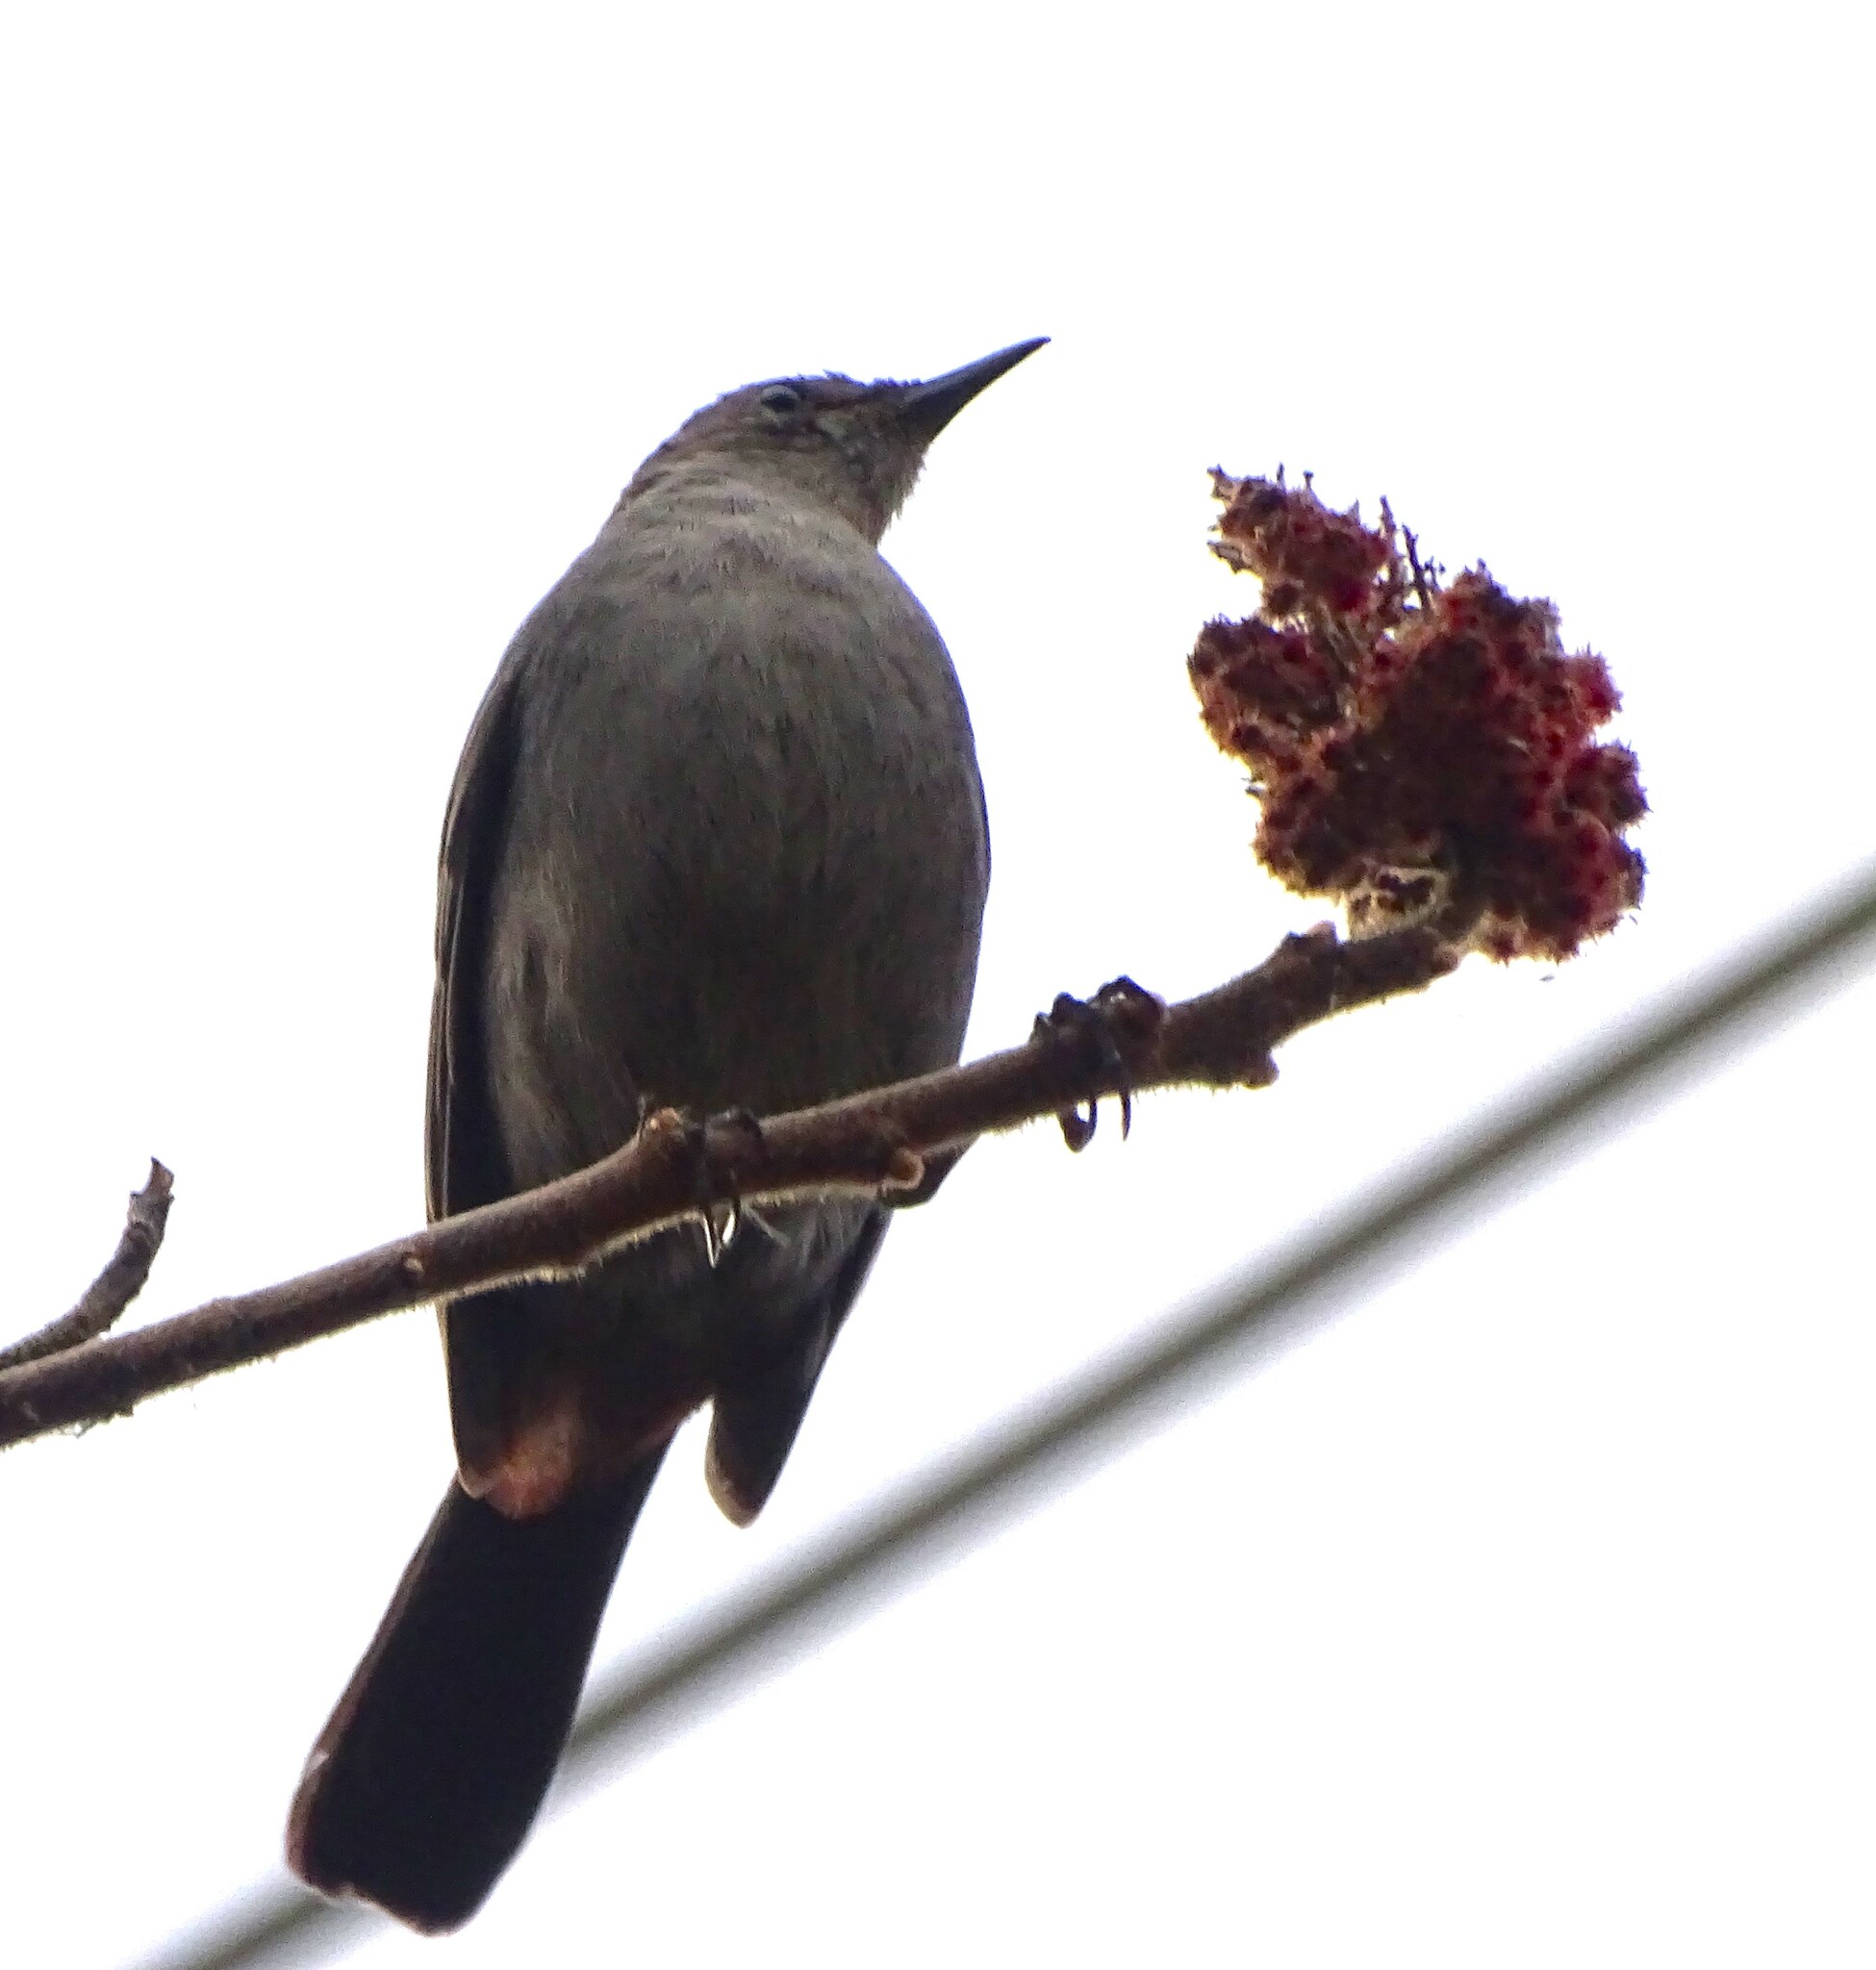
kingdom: Animalia
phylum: Chordata
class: Aves
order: Passeriformes
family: Mimidae
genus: Dumetella
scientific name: Dumetella carolinensis
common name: Gray catbird
